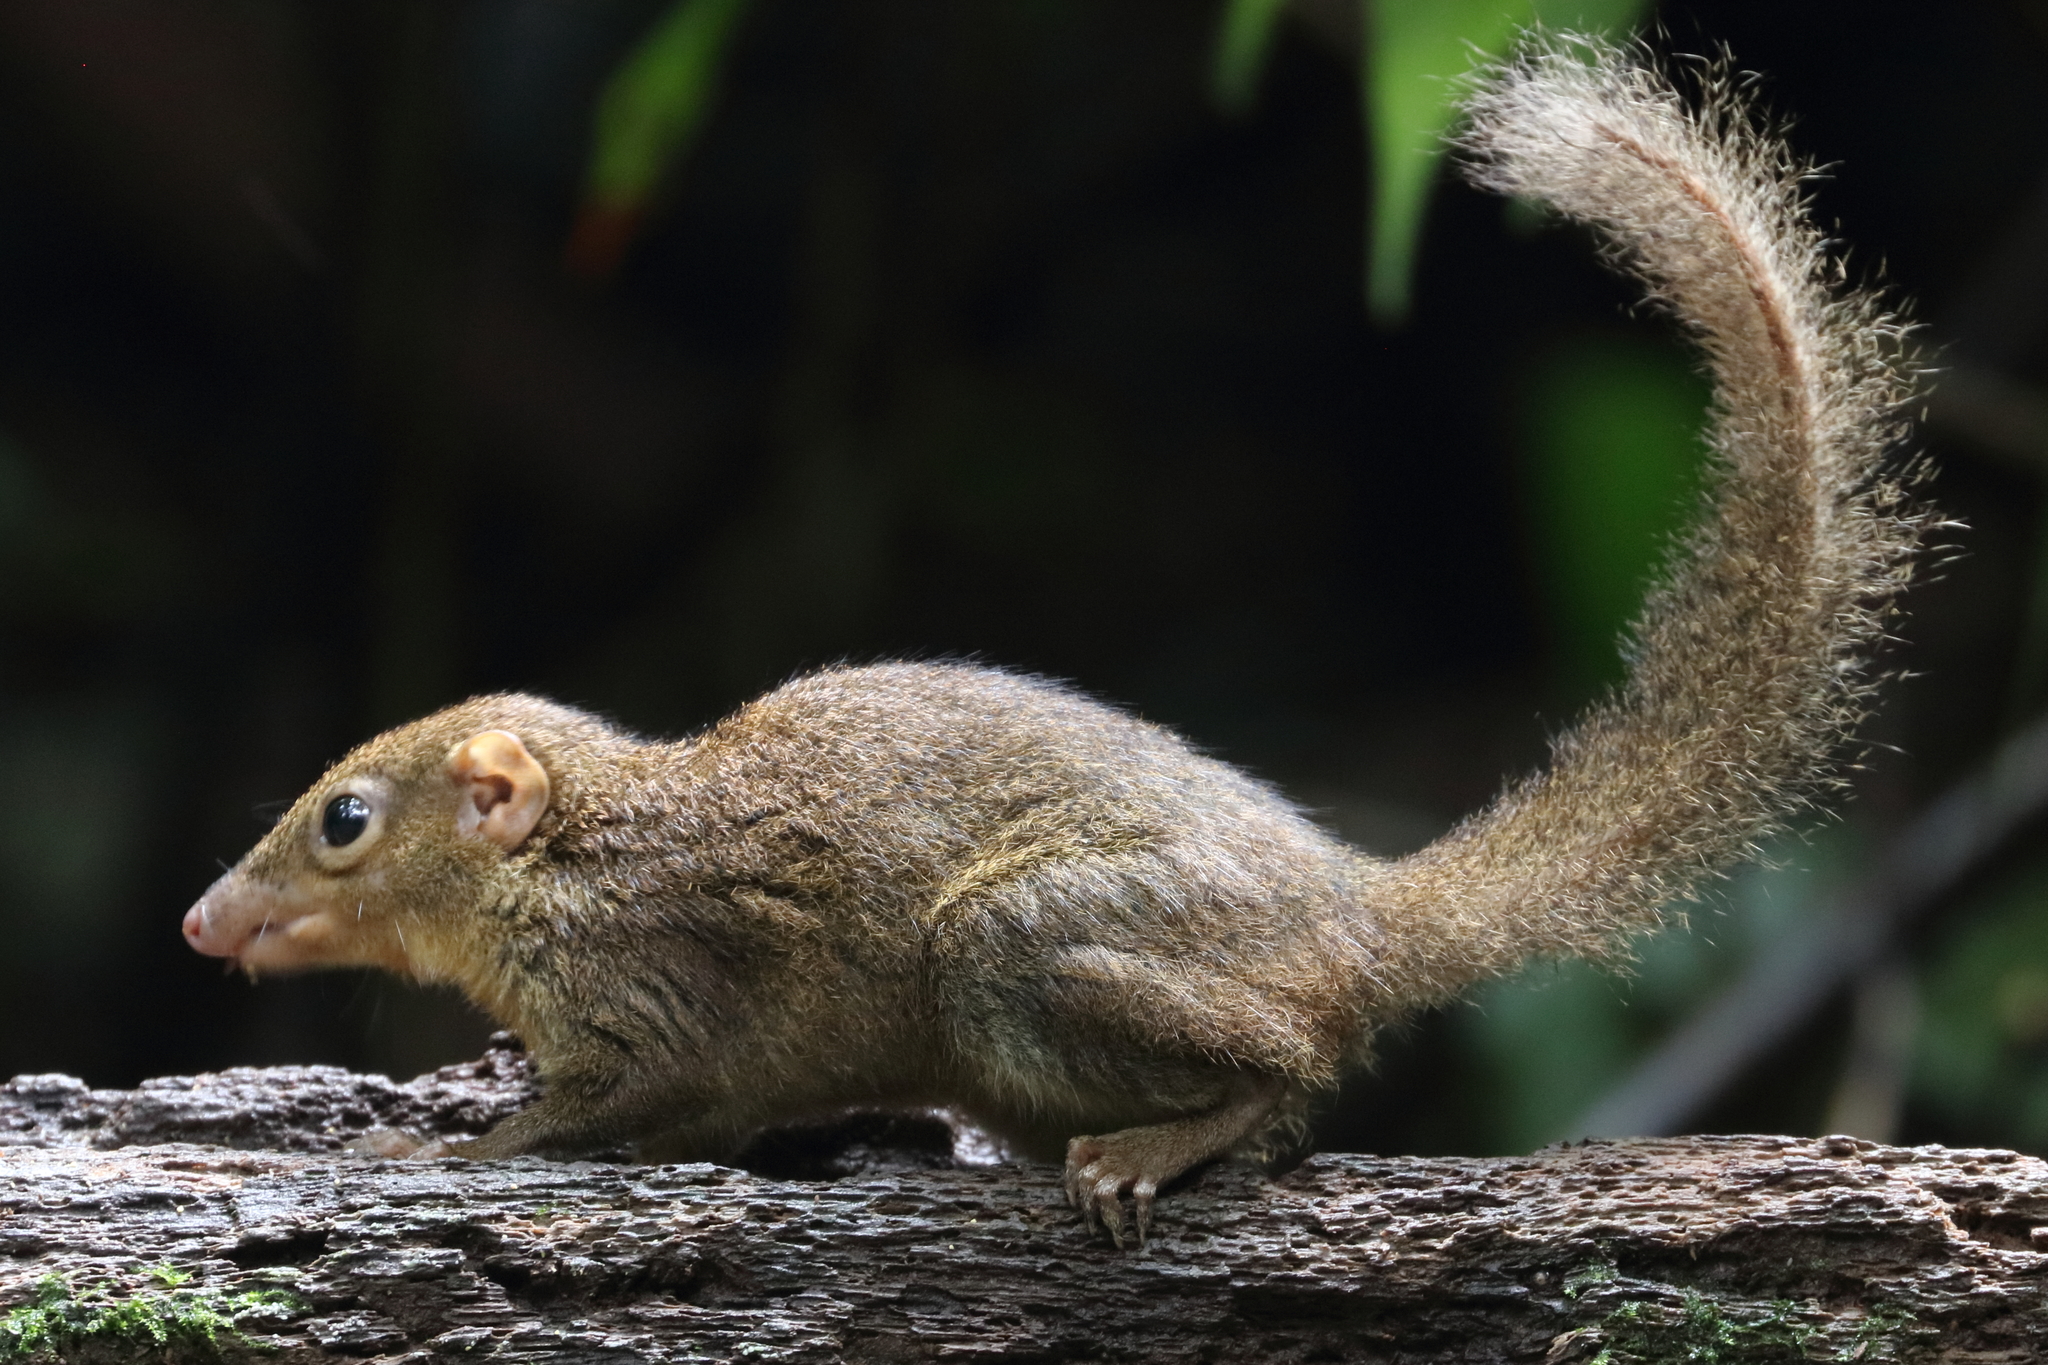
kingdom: Animalia
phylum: Chordata
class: Mammalia
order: Scandentia
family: Tupaiidae
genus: Tupaia
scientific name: Tupaia belangeri
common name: Northern treeshrew
